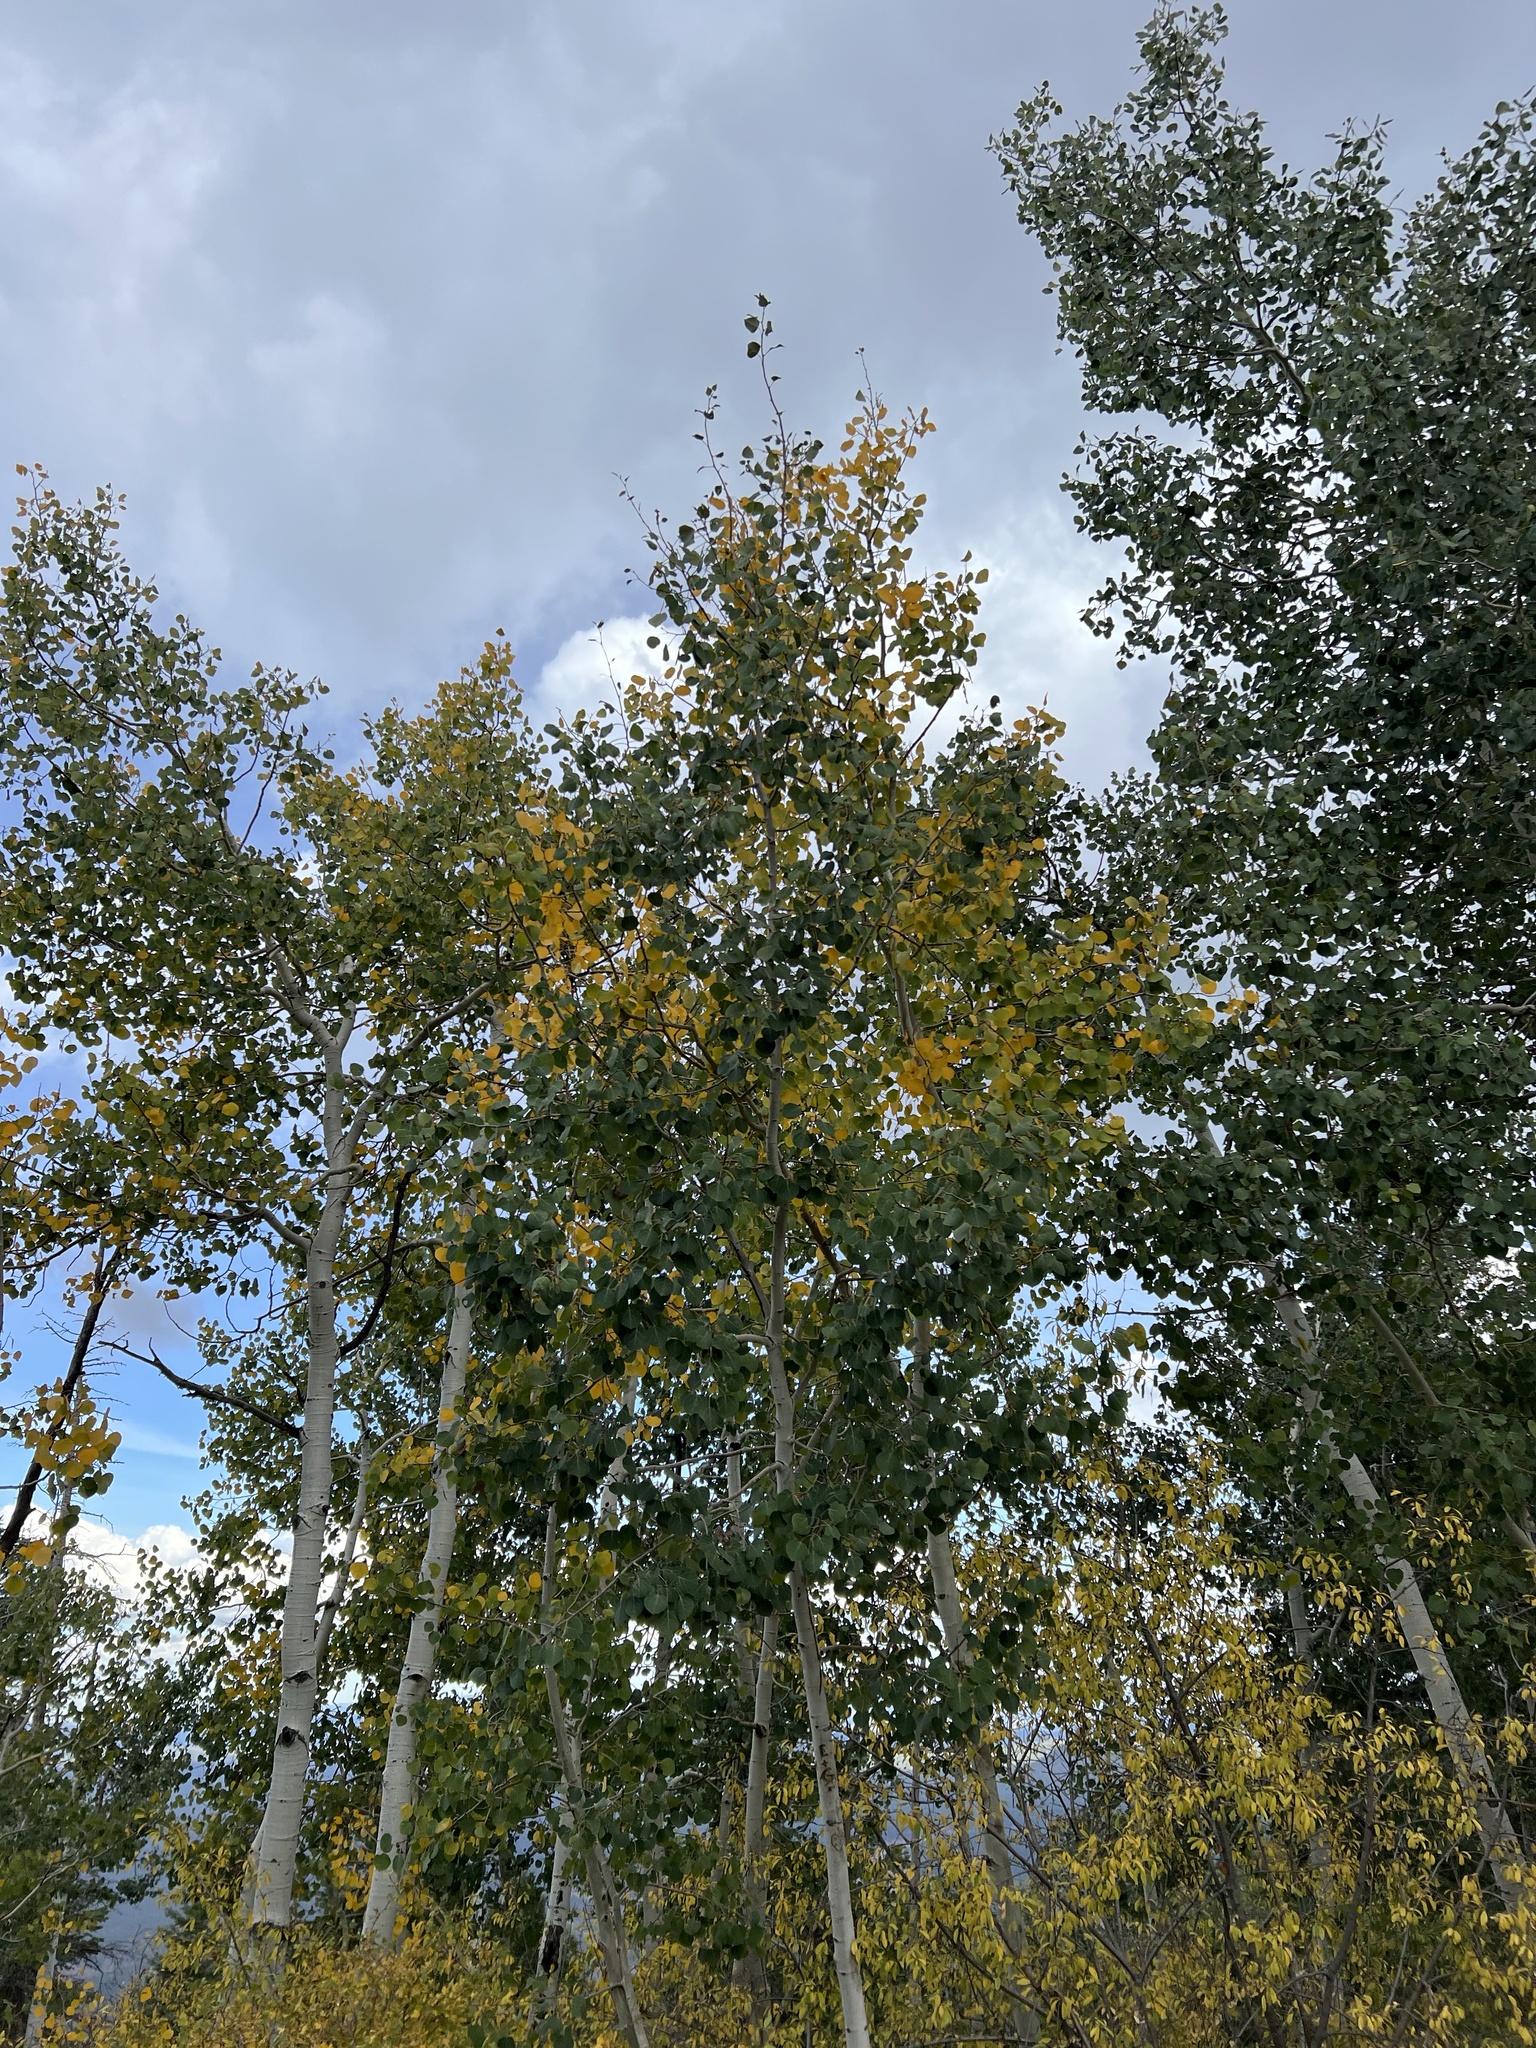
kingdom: Plantae
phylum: Tracheophyta
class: Magnoliopsida
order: Malpighiales
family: Salicaceae
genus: Populus
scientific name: Populus tremuloides
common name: Quaking aspen
